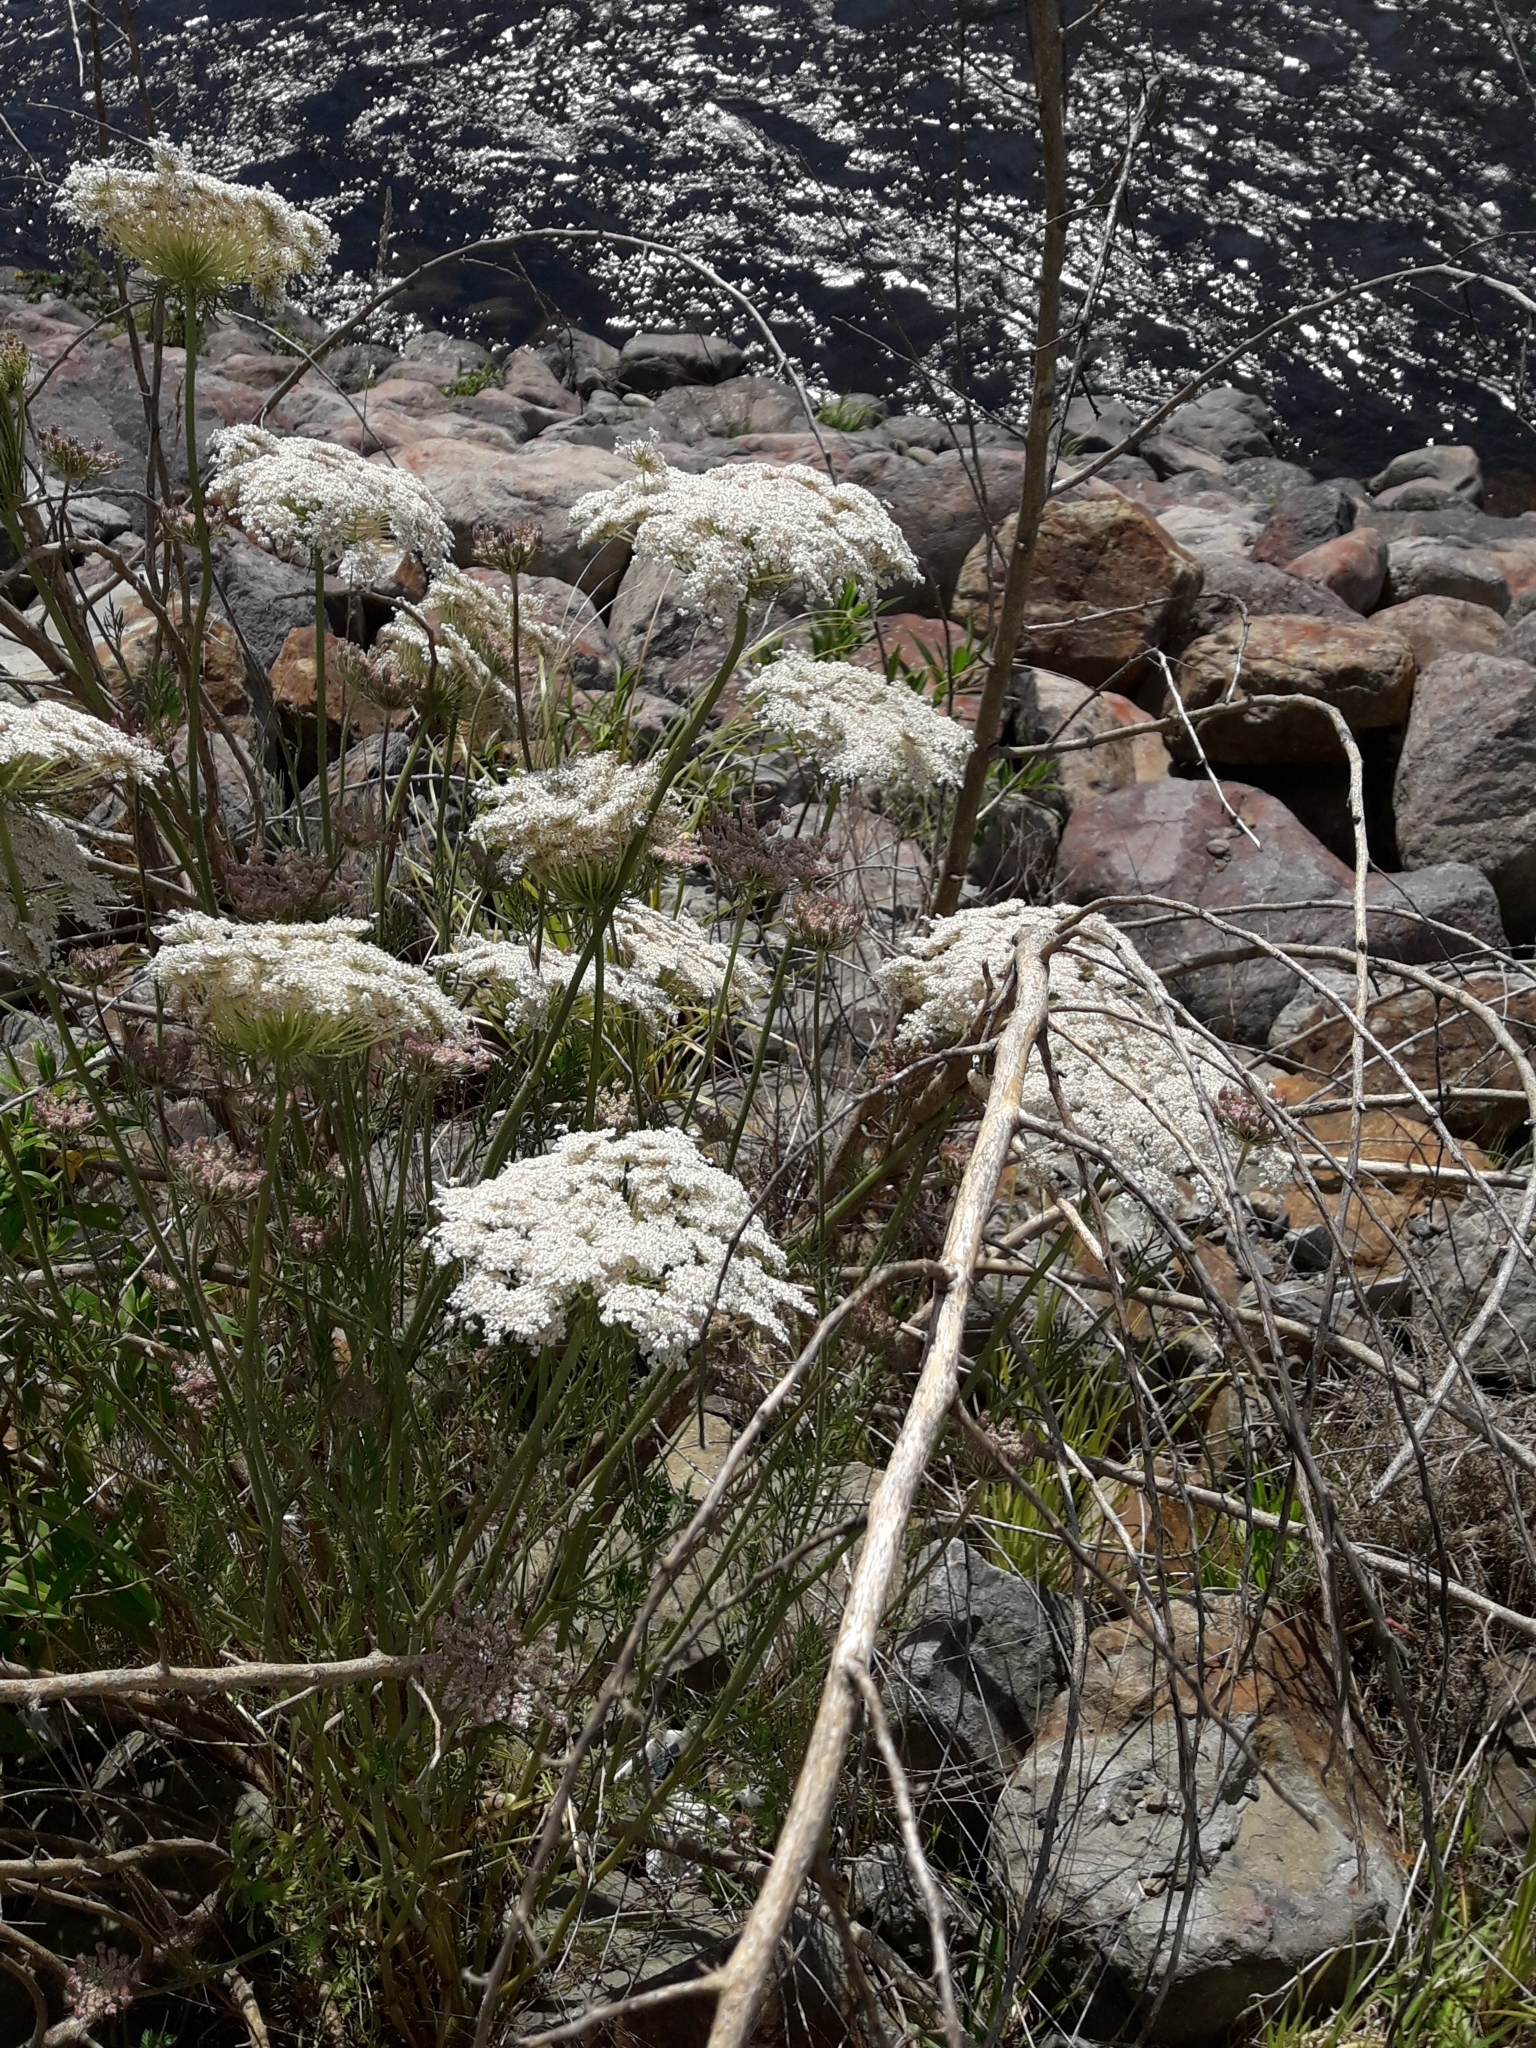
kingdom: Plantae
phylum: Tracheophyta
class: Magnoliopsida
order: Apiales
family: Apiaceae
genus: Daucus
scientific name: Daucus carota
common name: Wild carrot
